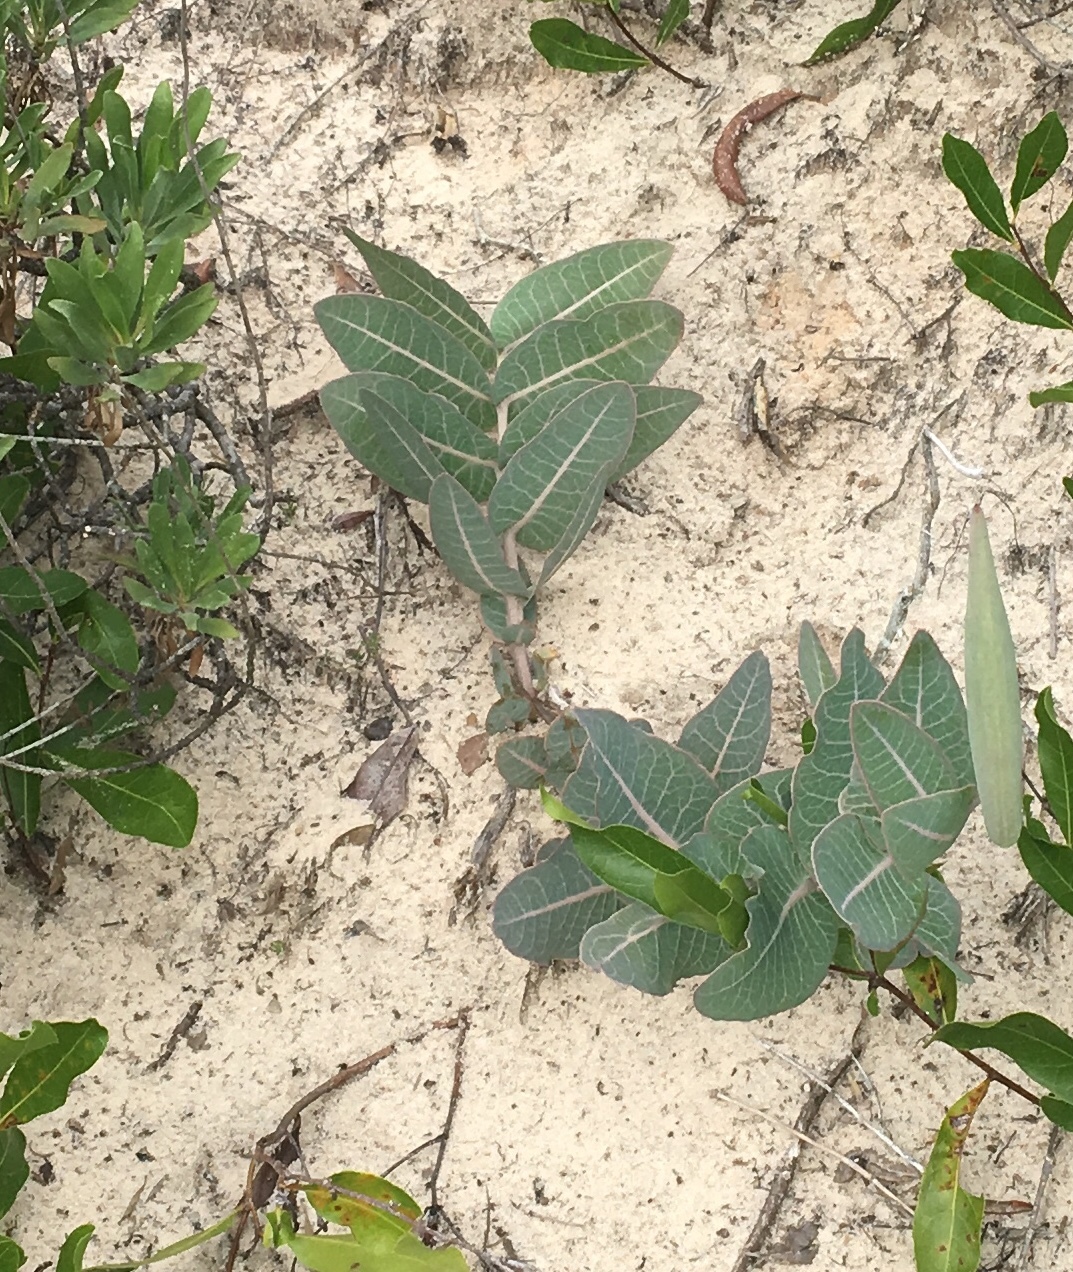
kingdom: Plantae
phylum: Tracheophyta
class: Magnoliopsida
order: Gentianales
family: Apocynaceae
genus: Asclepias
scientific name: Asclepias humistrata
